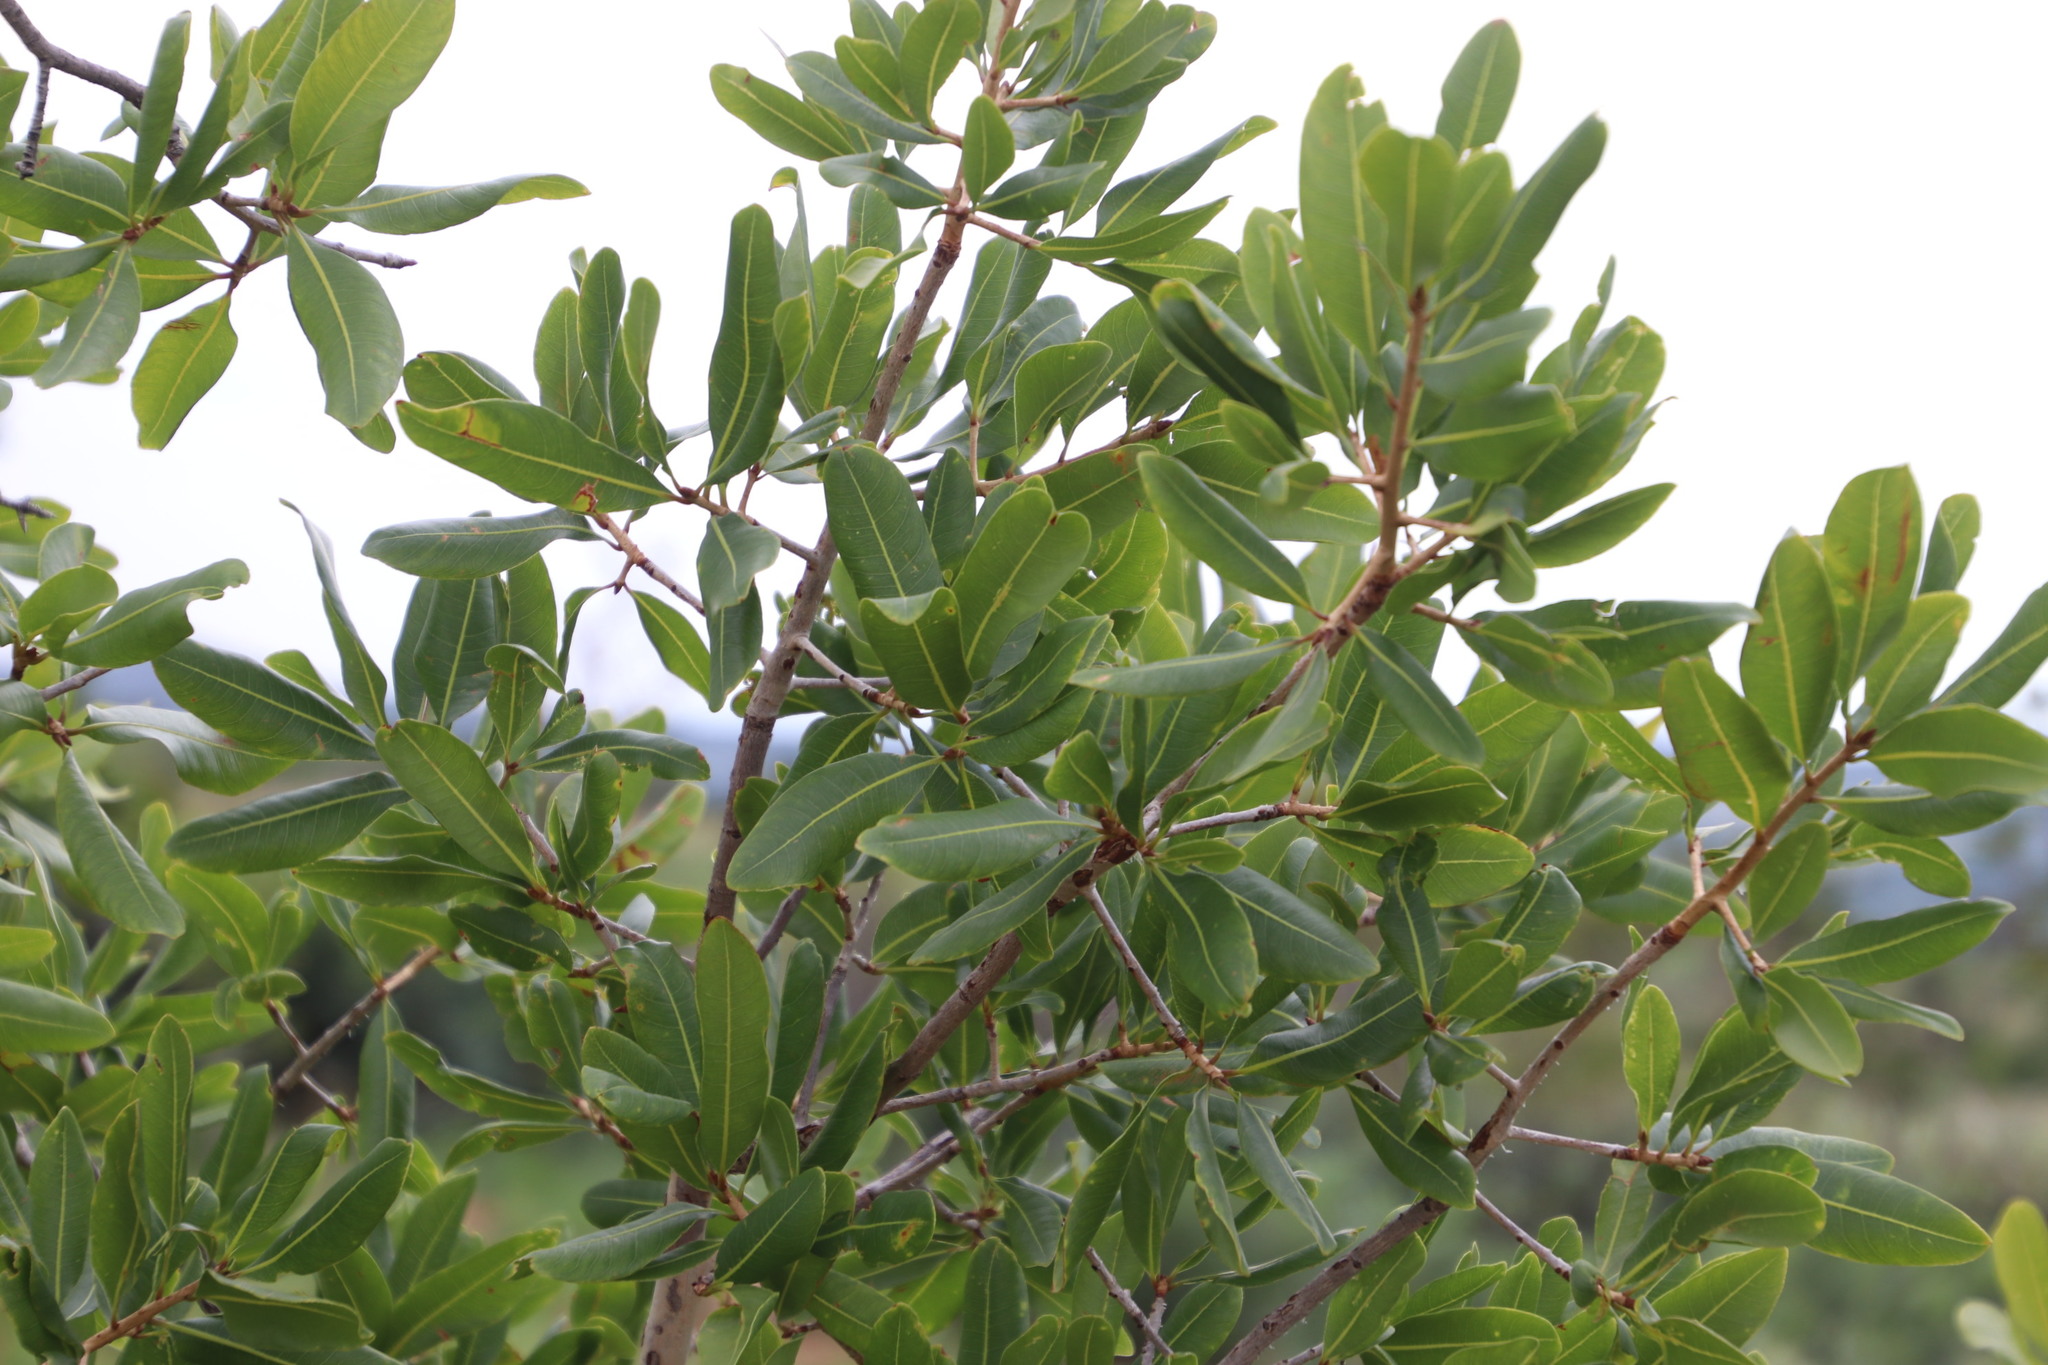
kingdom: Plantae
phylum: Tracheophyta
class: Magnoliopsida
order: Malpighiales
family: Ochnaceae
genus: Ochna
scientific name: Ochna pulchra
